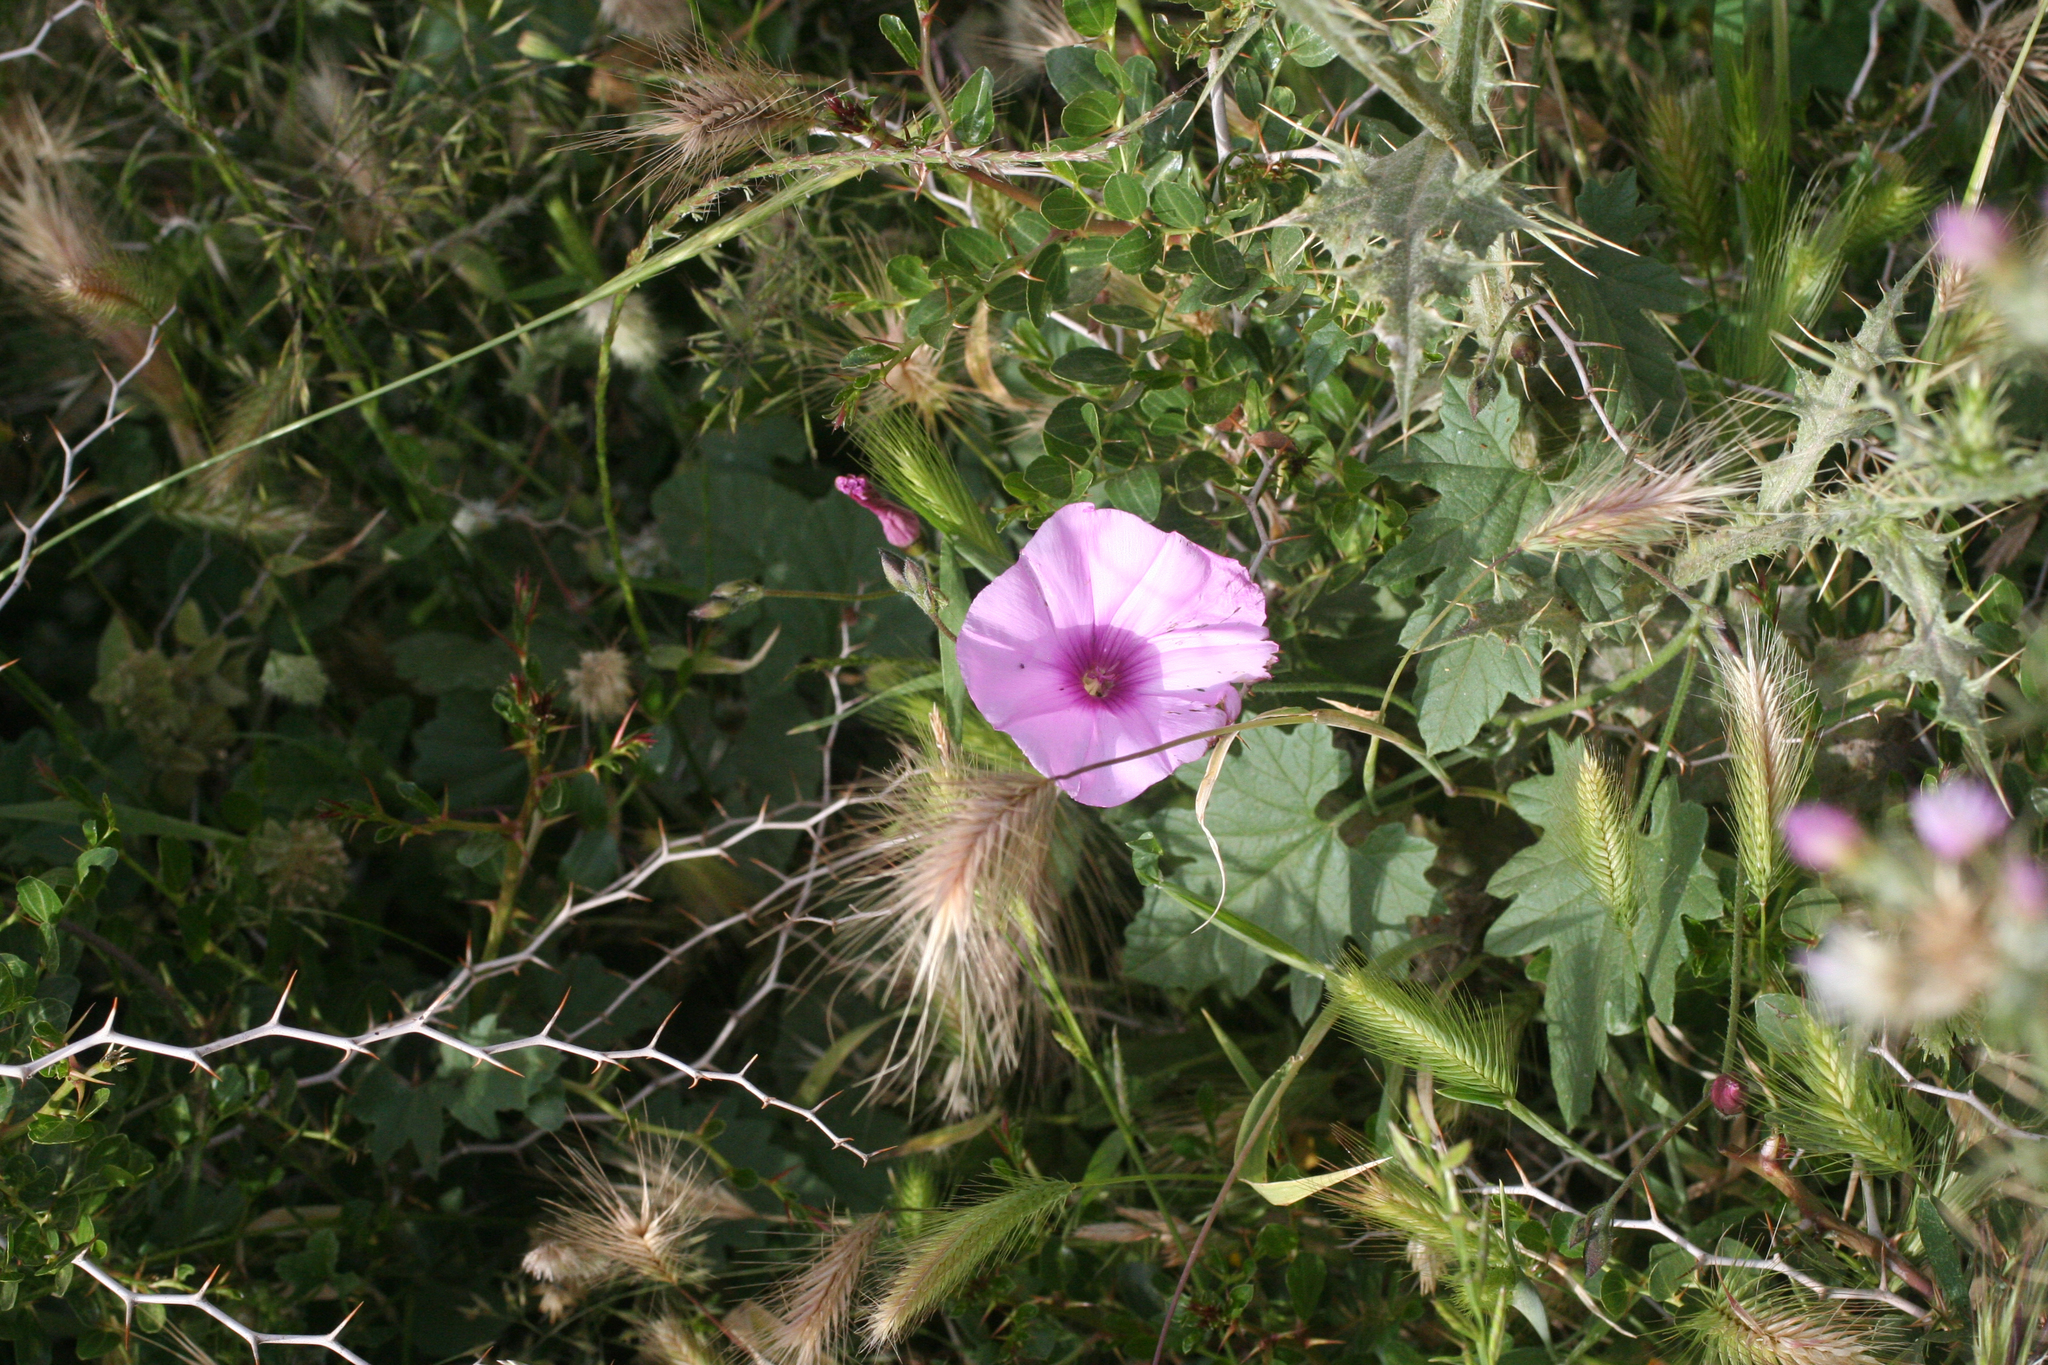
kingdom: Plantae
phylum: Tracheophyta
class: Magnoliopsida
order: Solanales
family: Convolvulaceae
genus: Convolvulus
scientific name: Convolvulus althaeoides
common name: Mallow bindweed
